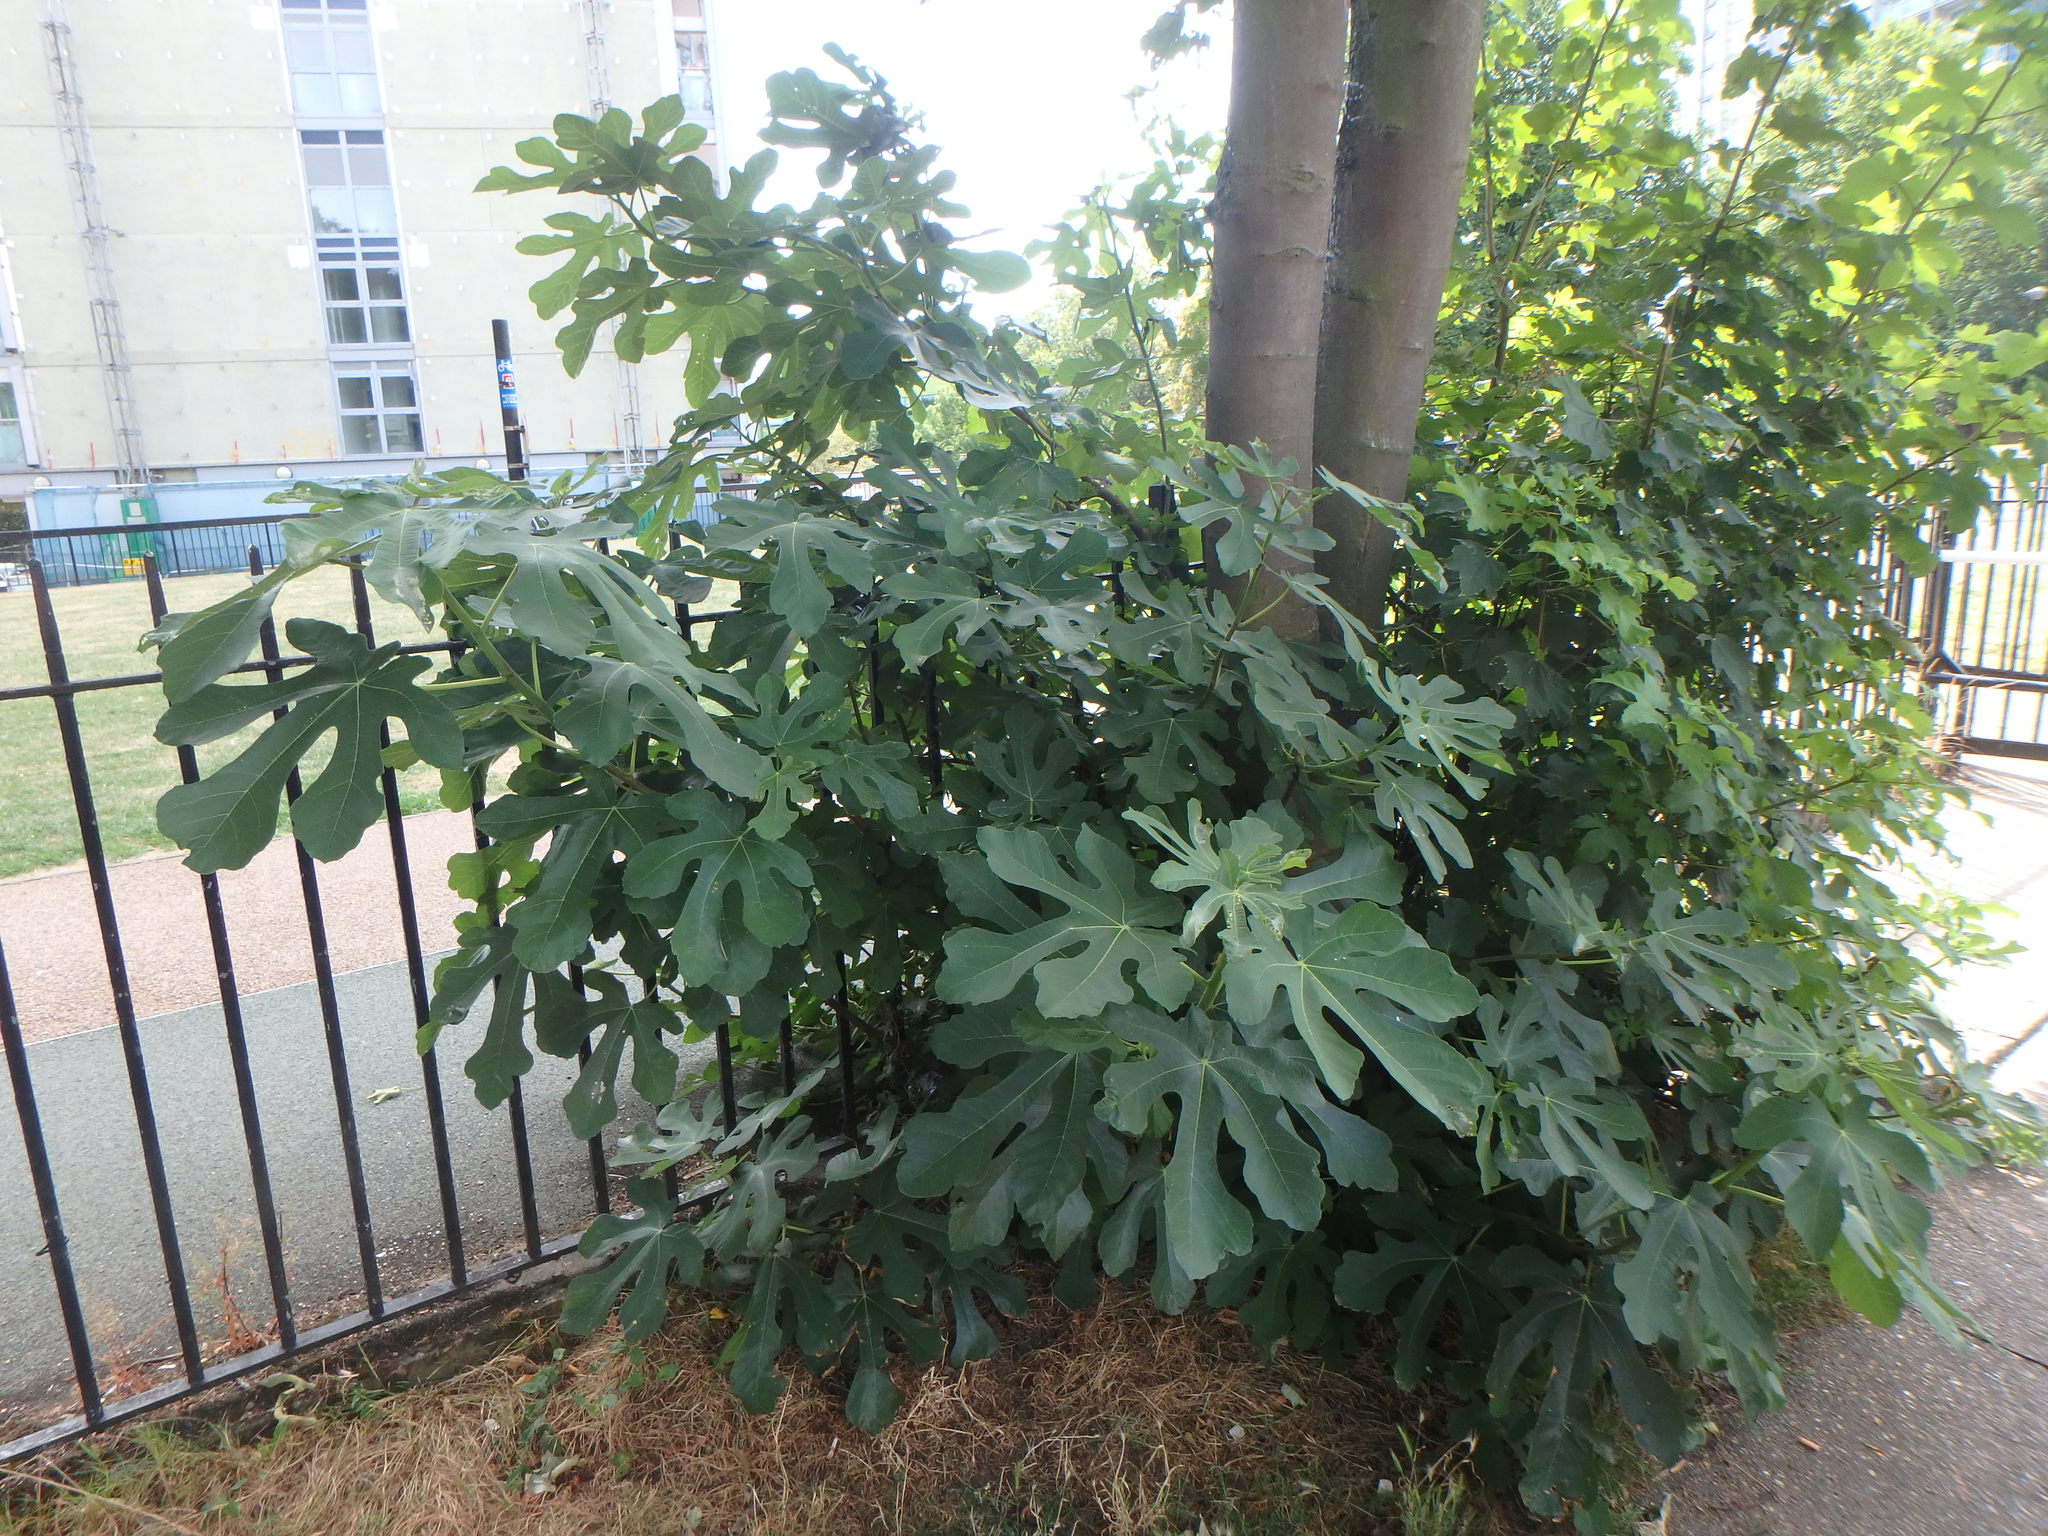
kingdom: Plantae
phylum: Tracheophyta
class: Magnoliopsida
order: Rosales
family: Moraceae
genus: Ficus
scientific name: Ficus carica
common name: Fig
